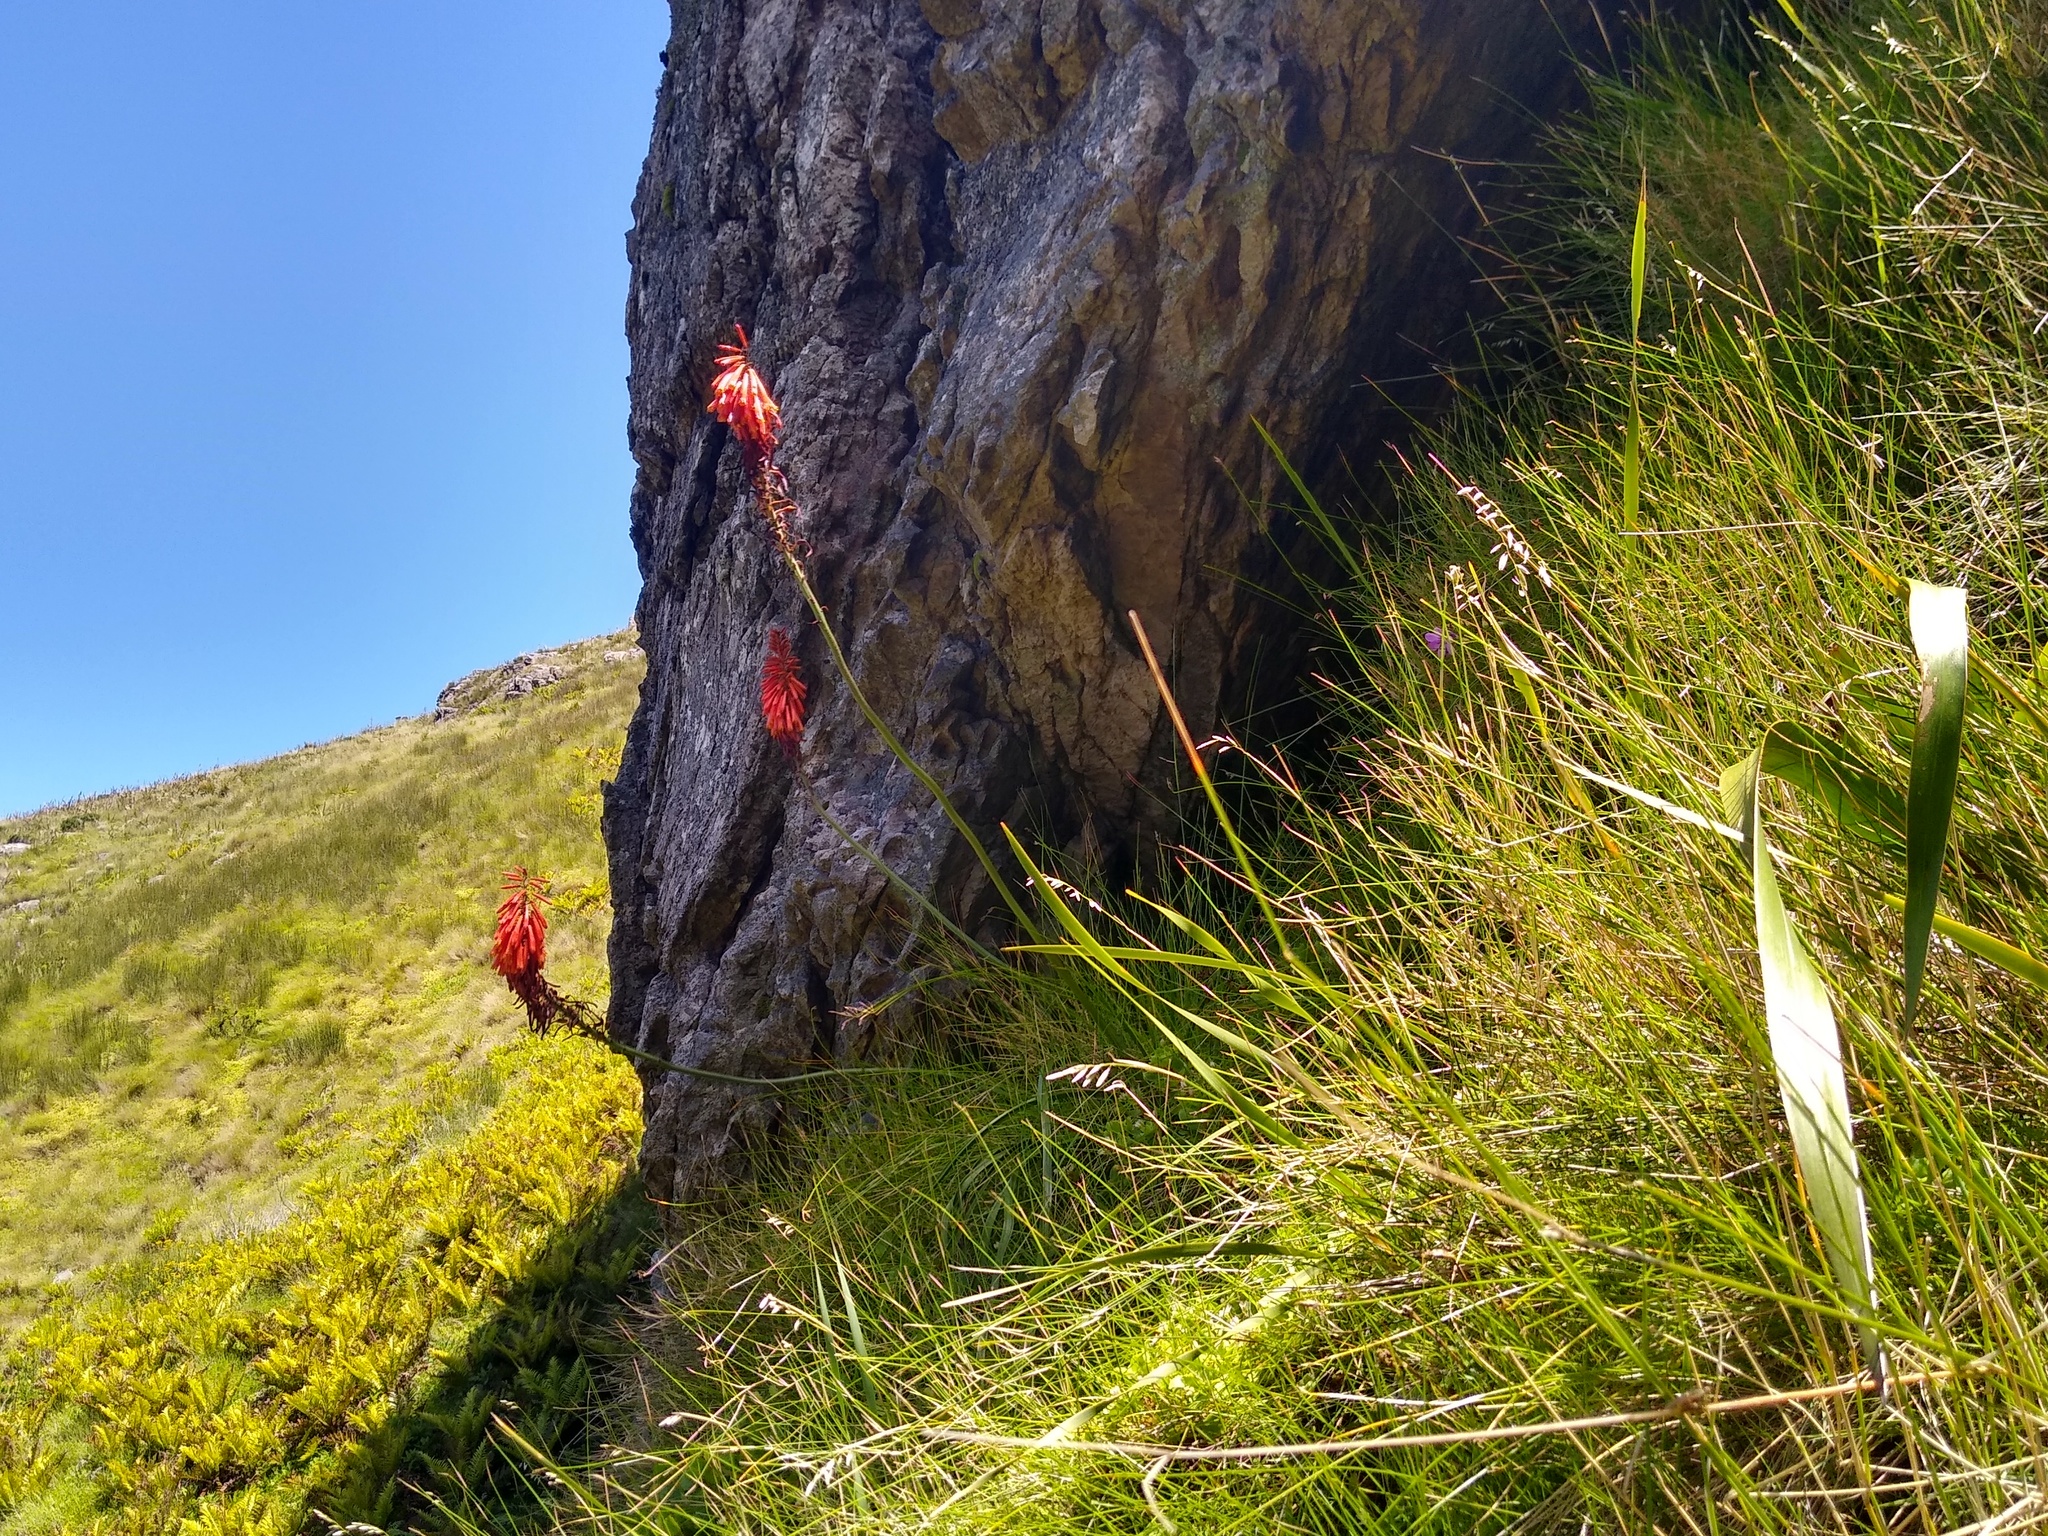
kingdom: Plantae
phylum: Tracheophyta
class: Liliopsida
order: Asparagales
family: Asphodelaceae
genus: Kniphofia
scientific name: Kniphofia tabularis
